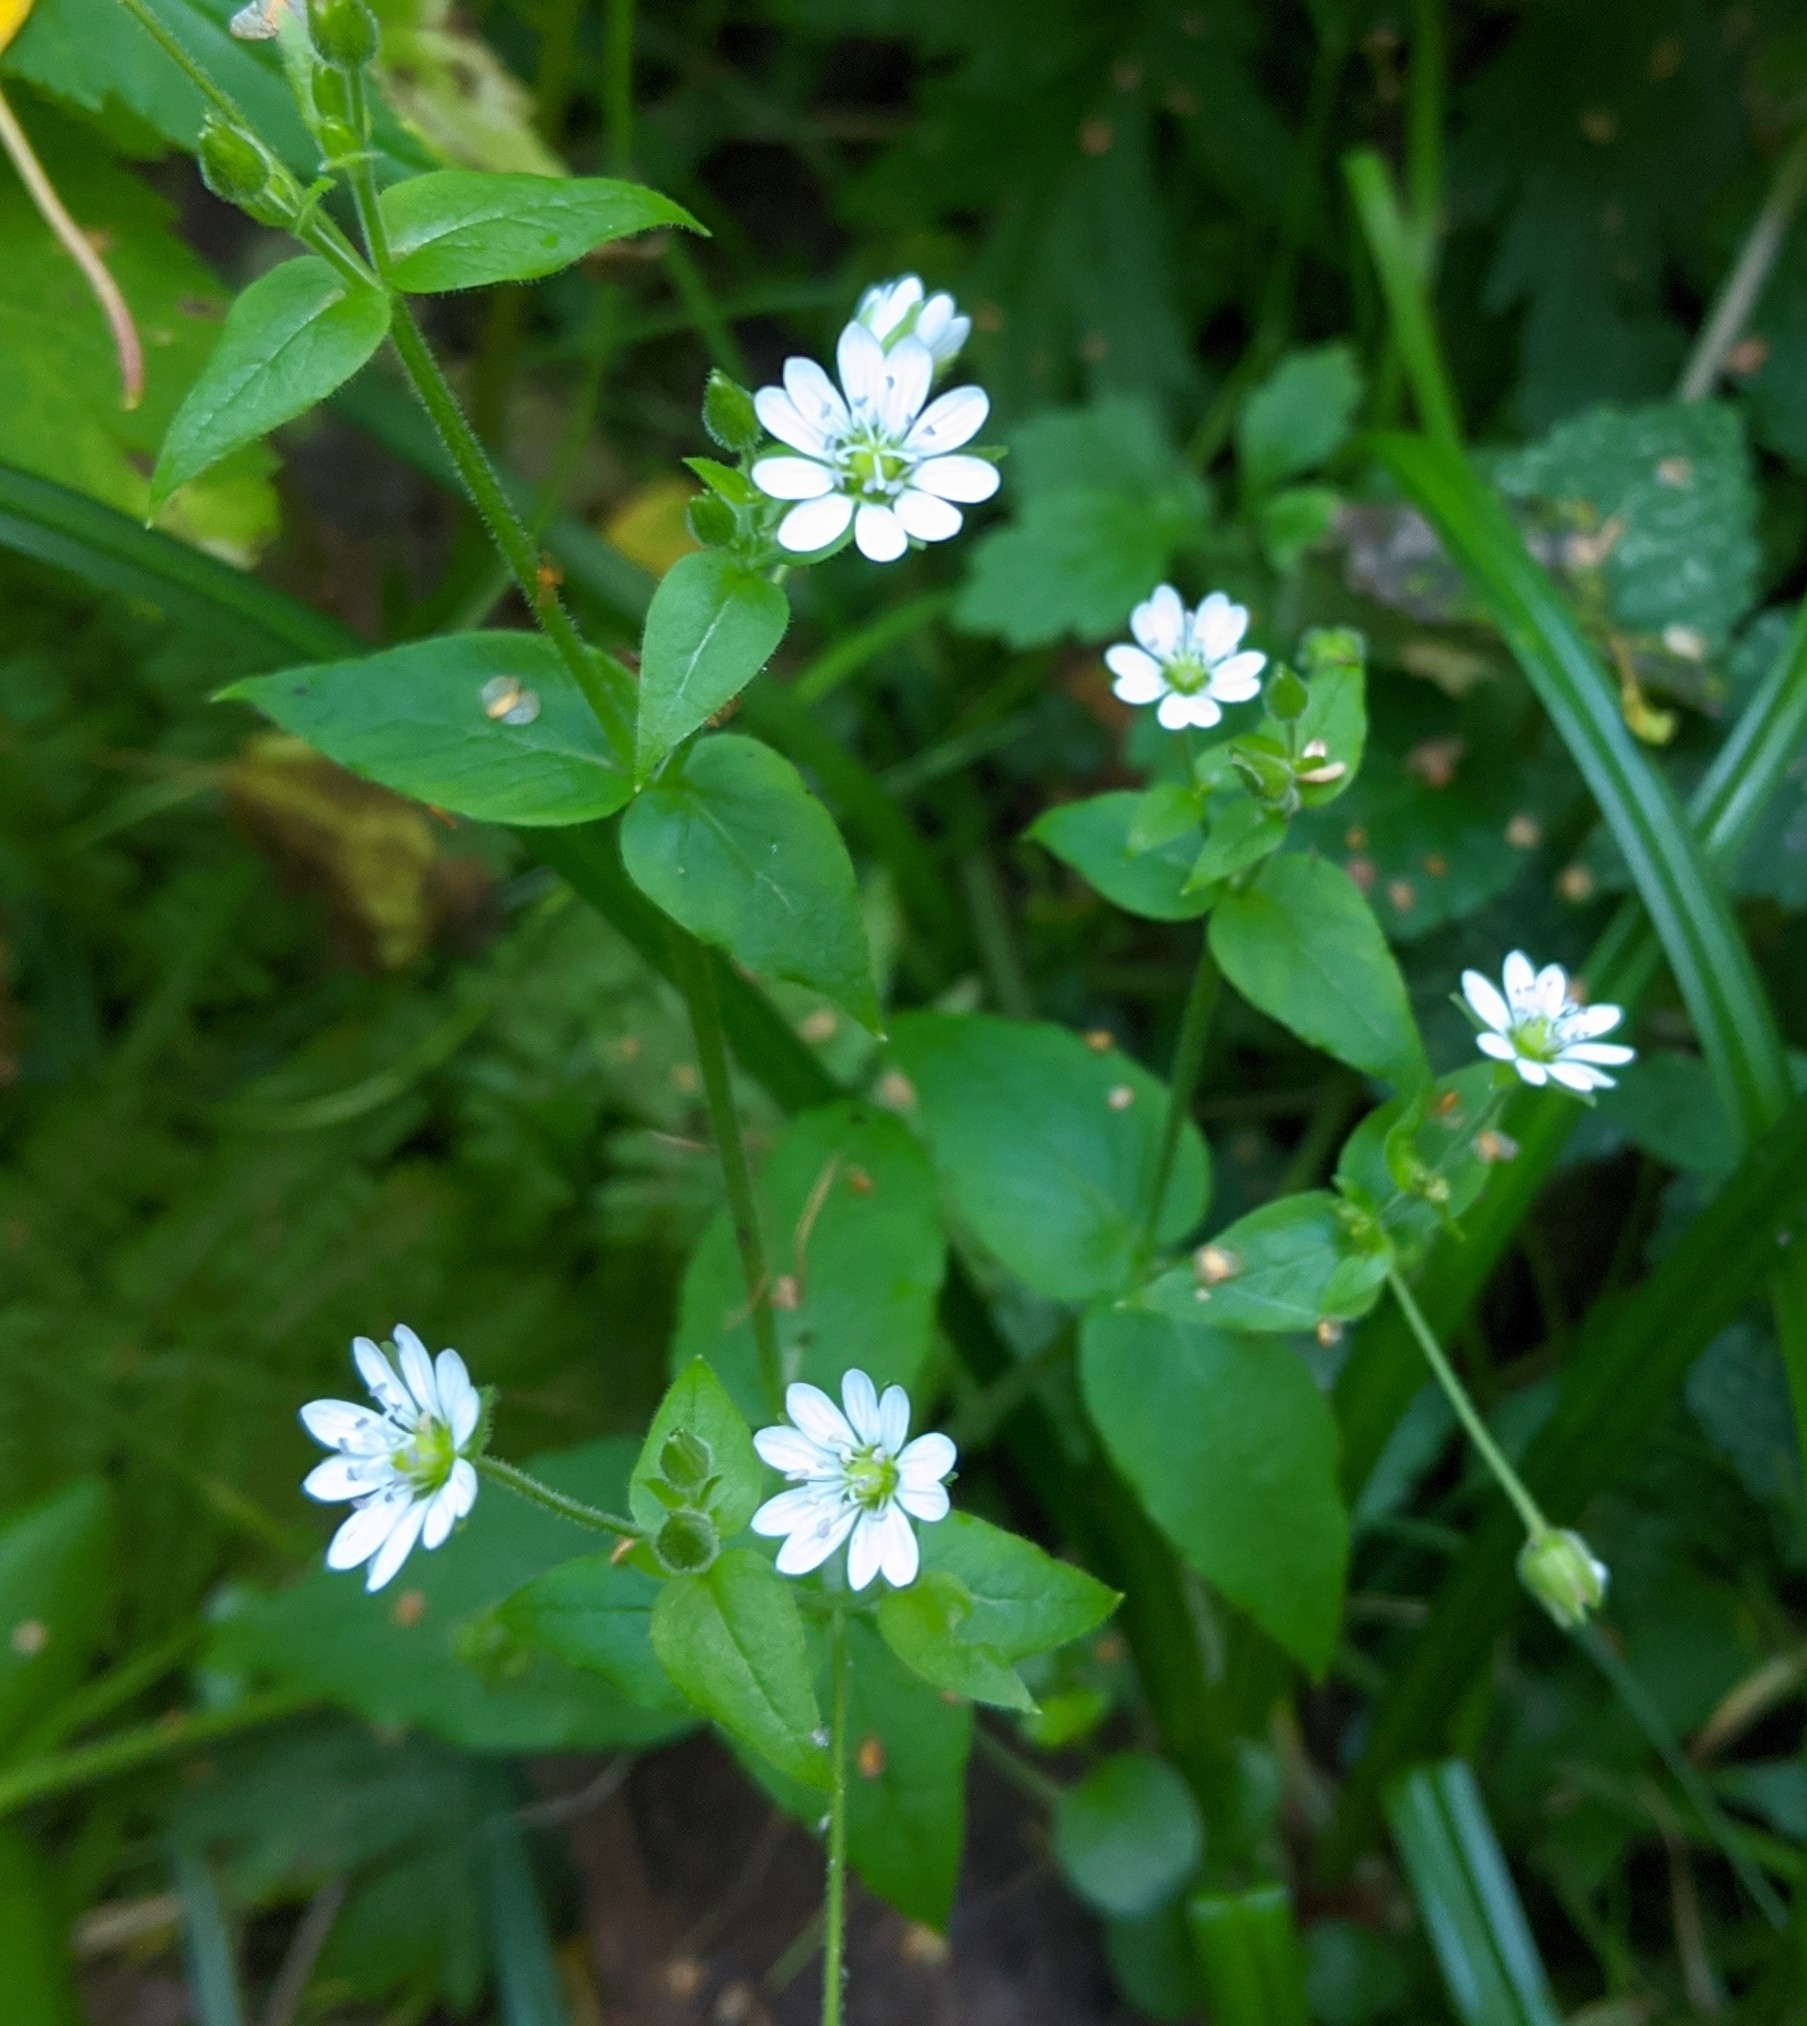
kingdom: Plantae
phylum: Tracheophyta
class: Magnoliopsida
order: Caryophyllales
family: Caryophyllaceae
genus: Stellaria
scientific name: Stellaria aquatica
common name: Water chickweed
